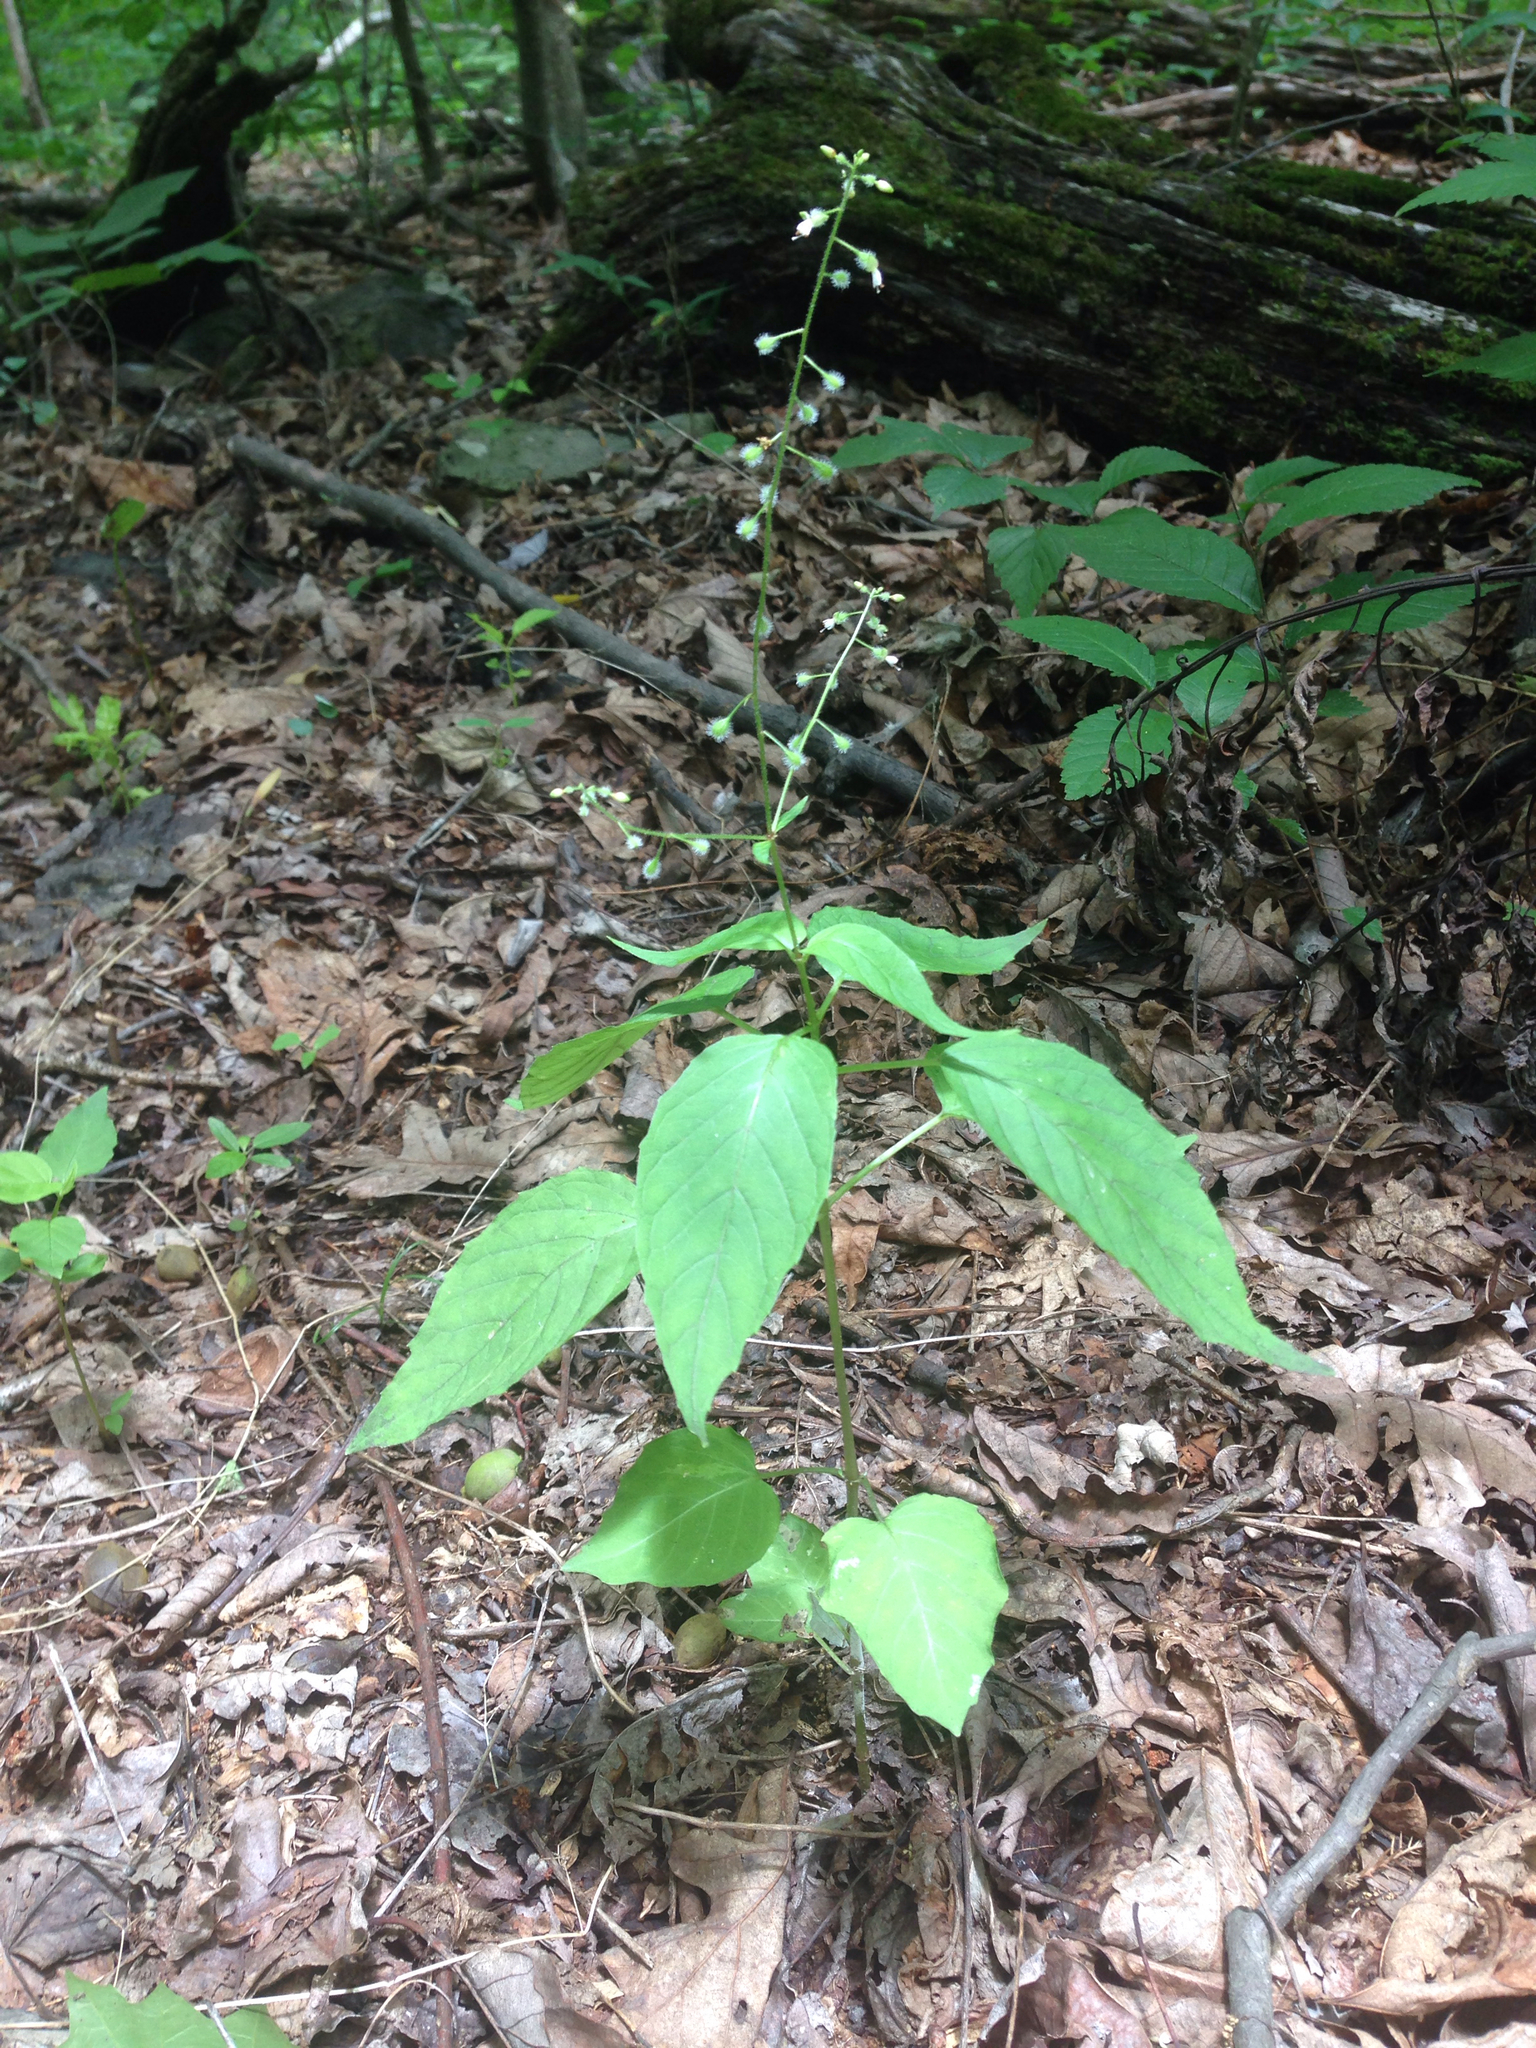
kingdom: Plantae
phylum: Tracheophyta
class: Magnoliopsida
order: Myrtales
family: Onagraceae
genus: Circaea
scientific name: Circaea canadensis
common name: Broad-leaved enchanter's nightshade
